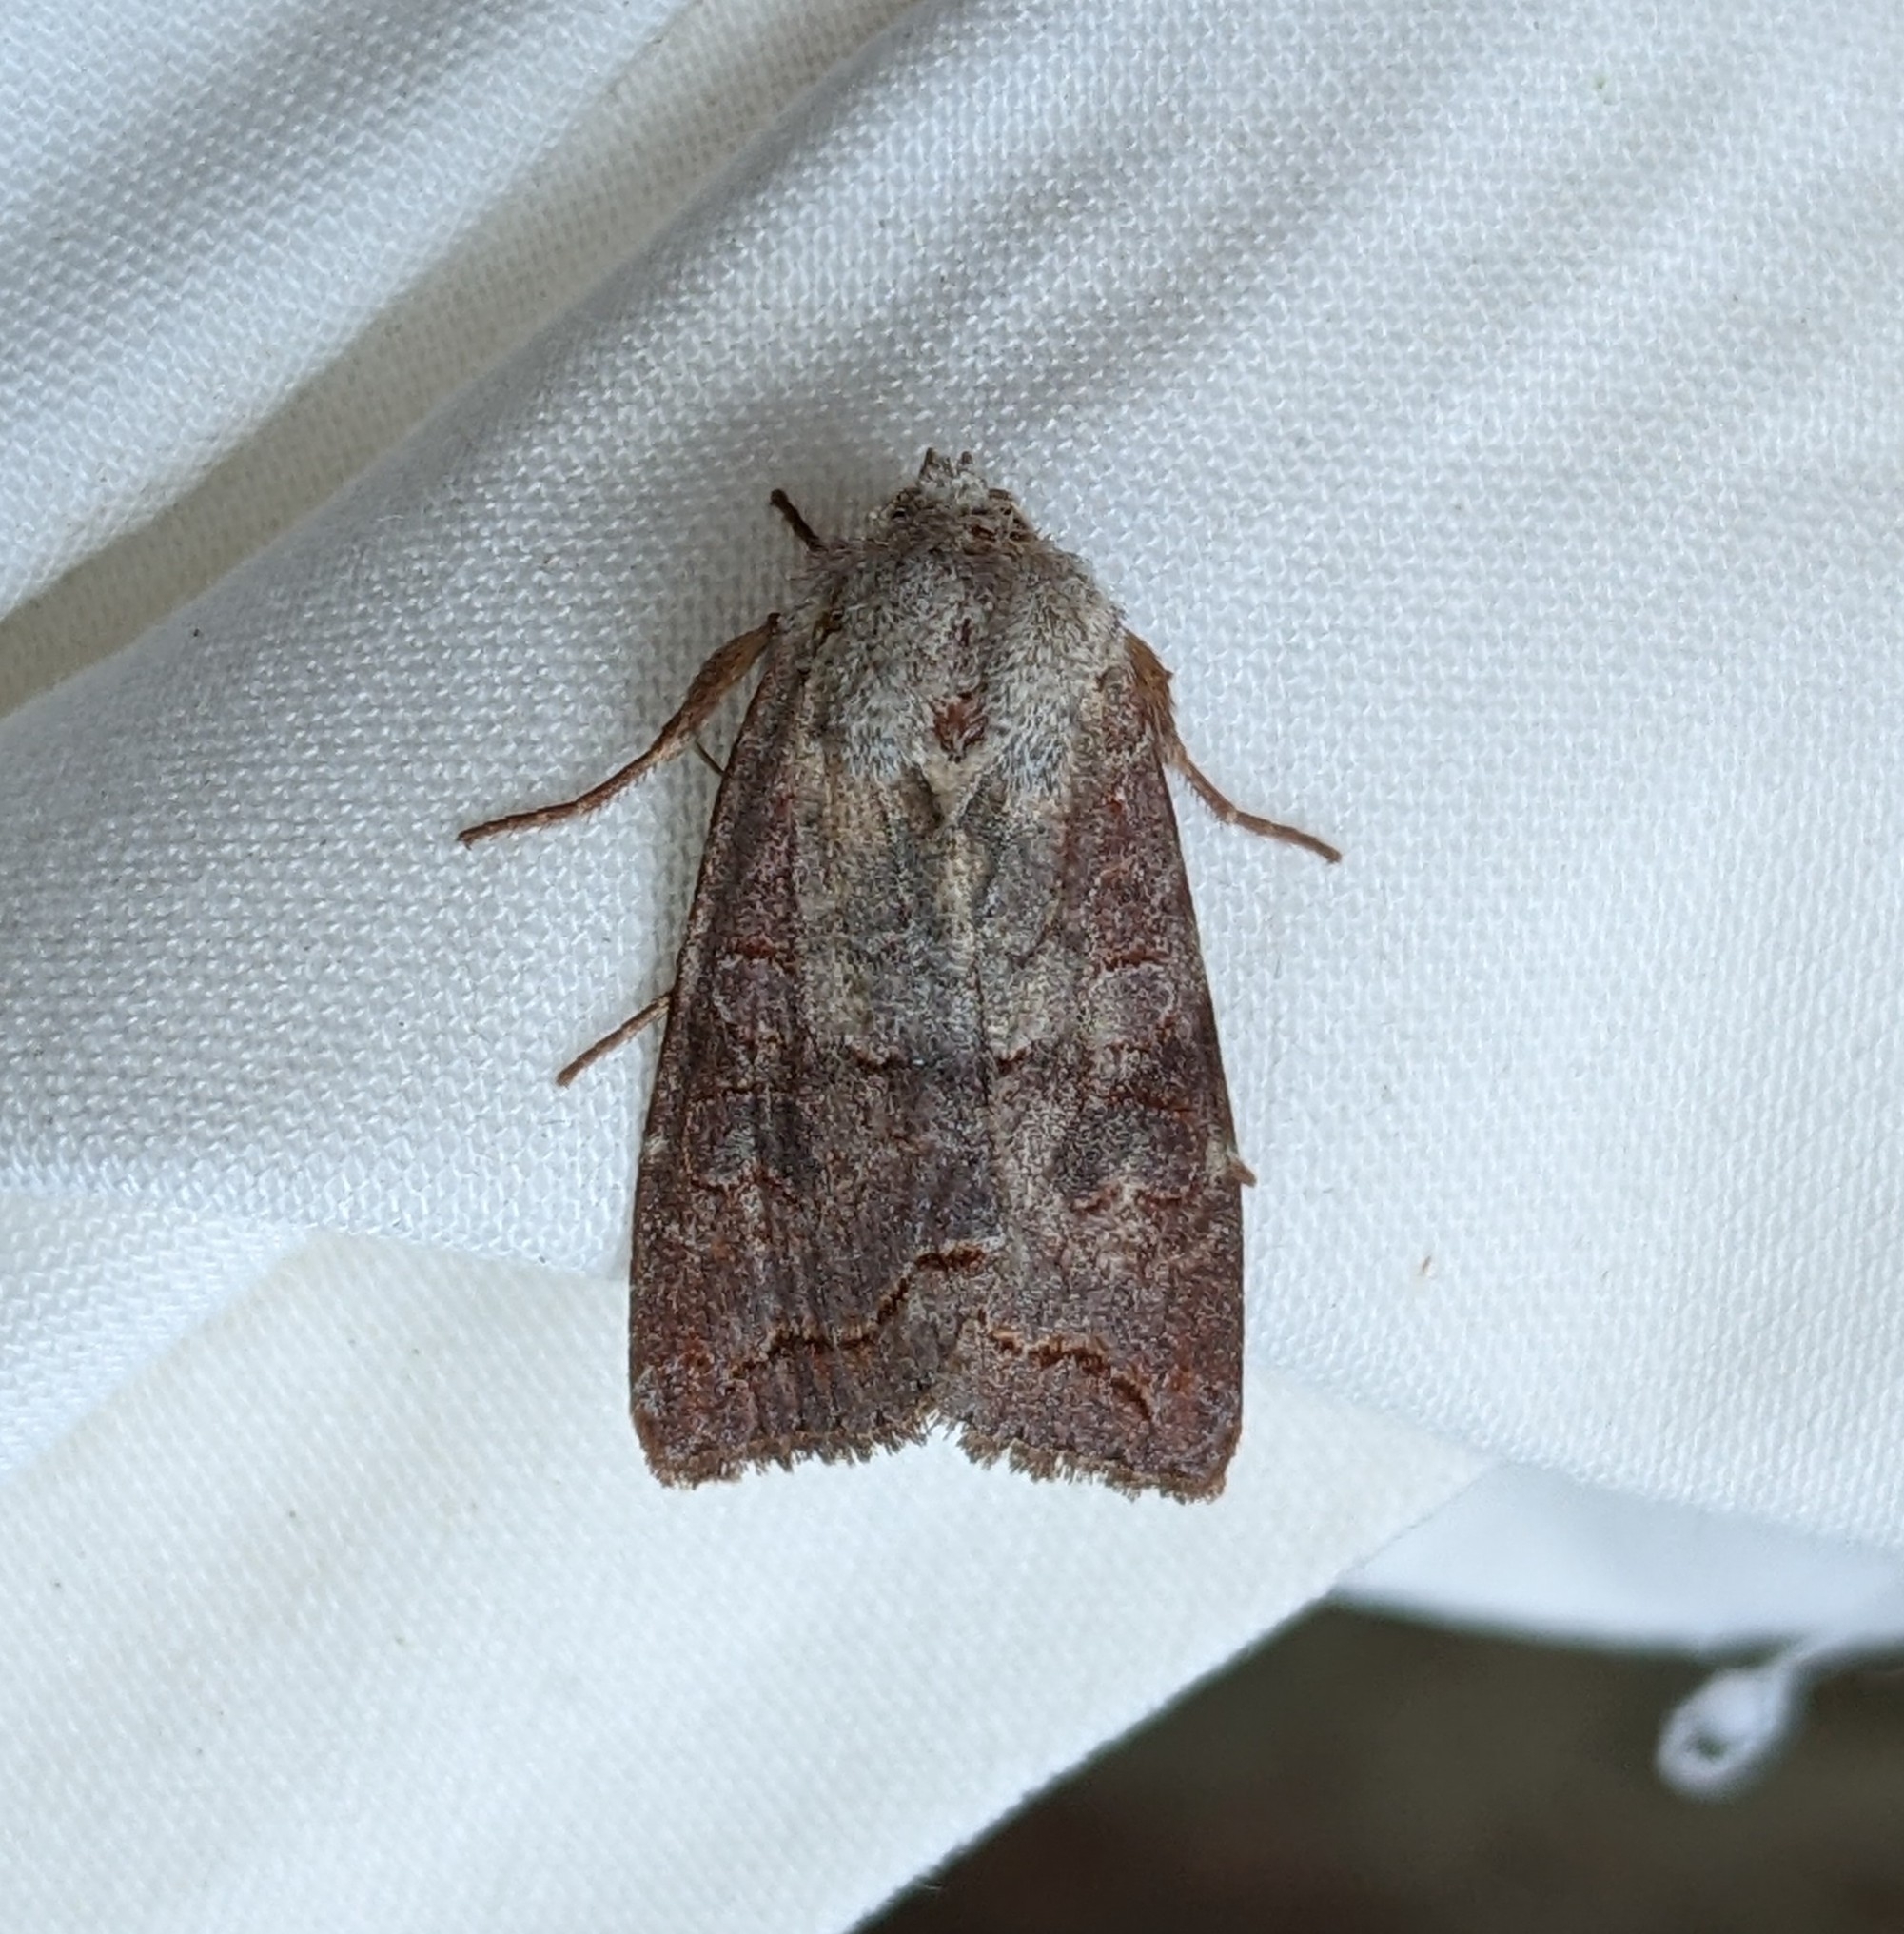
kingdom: Animalia
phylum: Arthropoda
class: Insecta
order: Lepidoptera
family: Noctuidae
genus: Orthosia
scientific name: Orthosia revicta
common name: Rusty whitesided caterpillar
